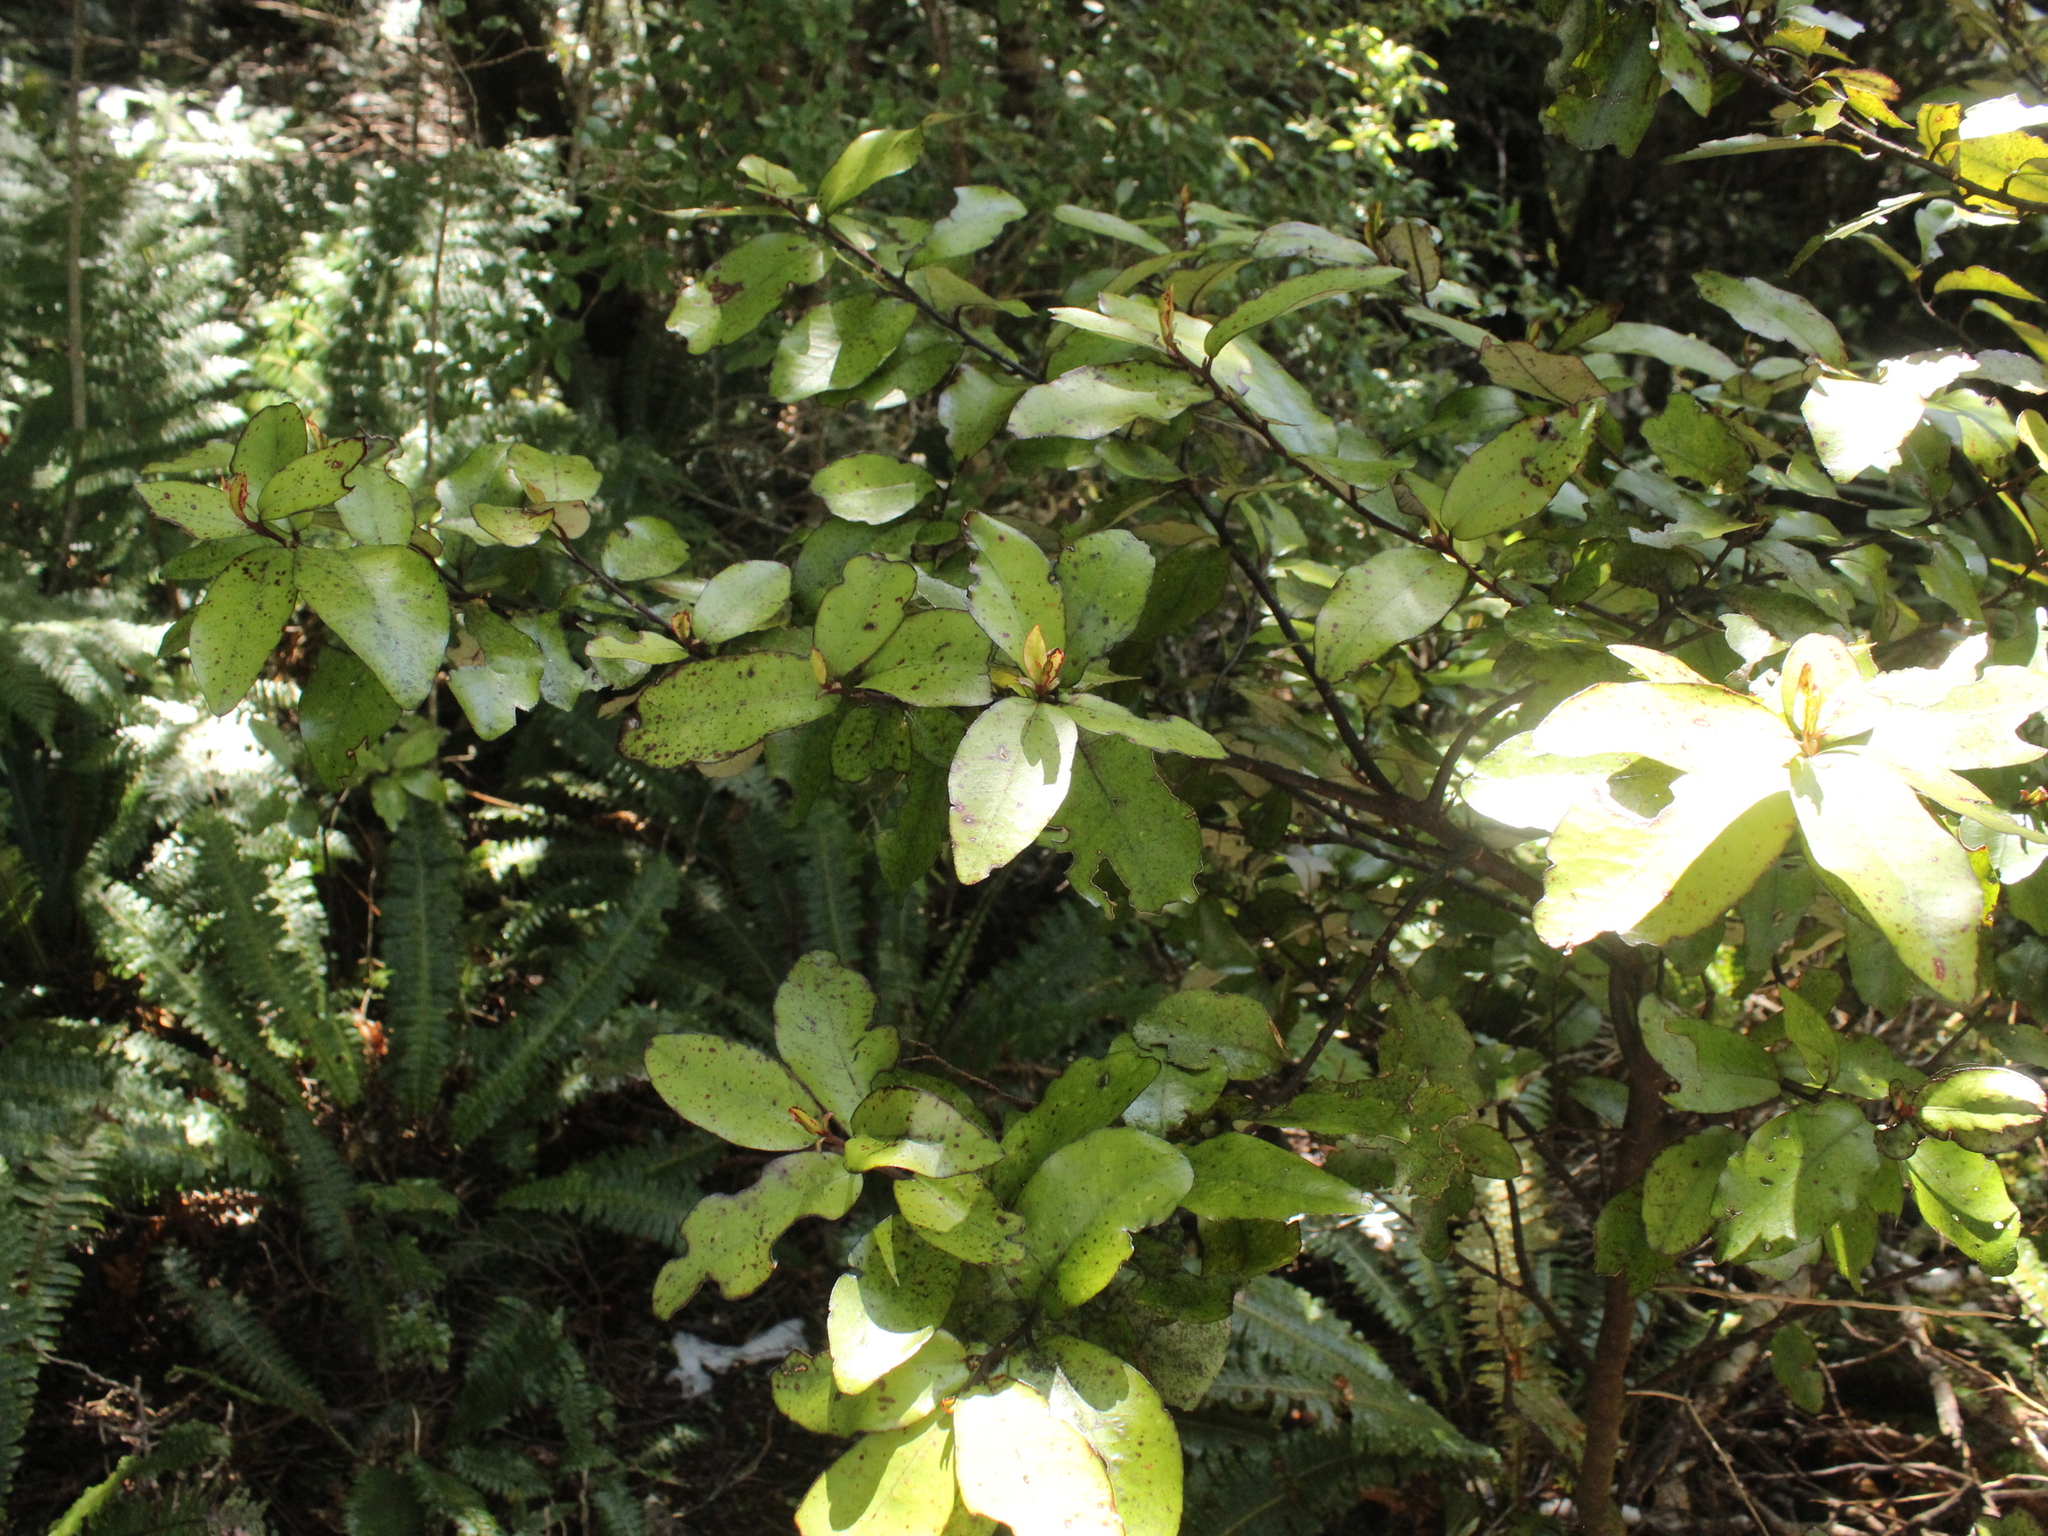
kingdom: Plantae
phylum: Tracheophyta
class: Magnoliopsida
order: Canellales
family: Winteraceae
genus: Pseudowintera
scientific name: Pseudowintera colorata
